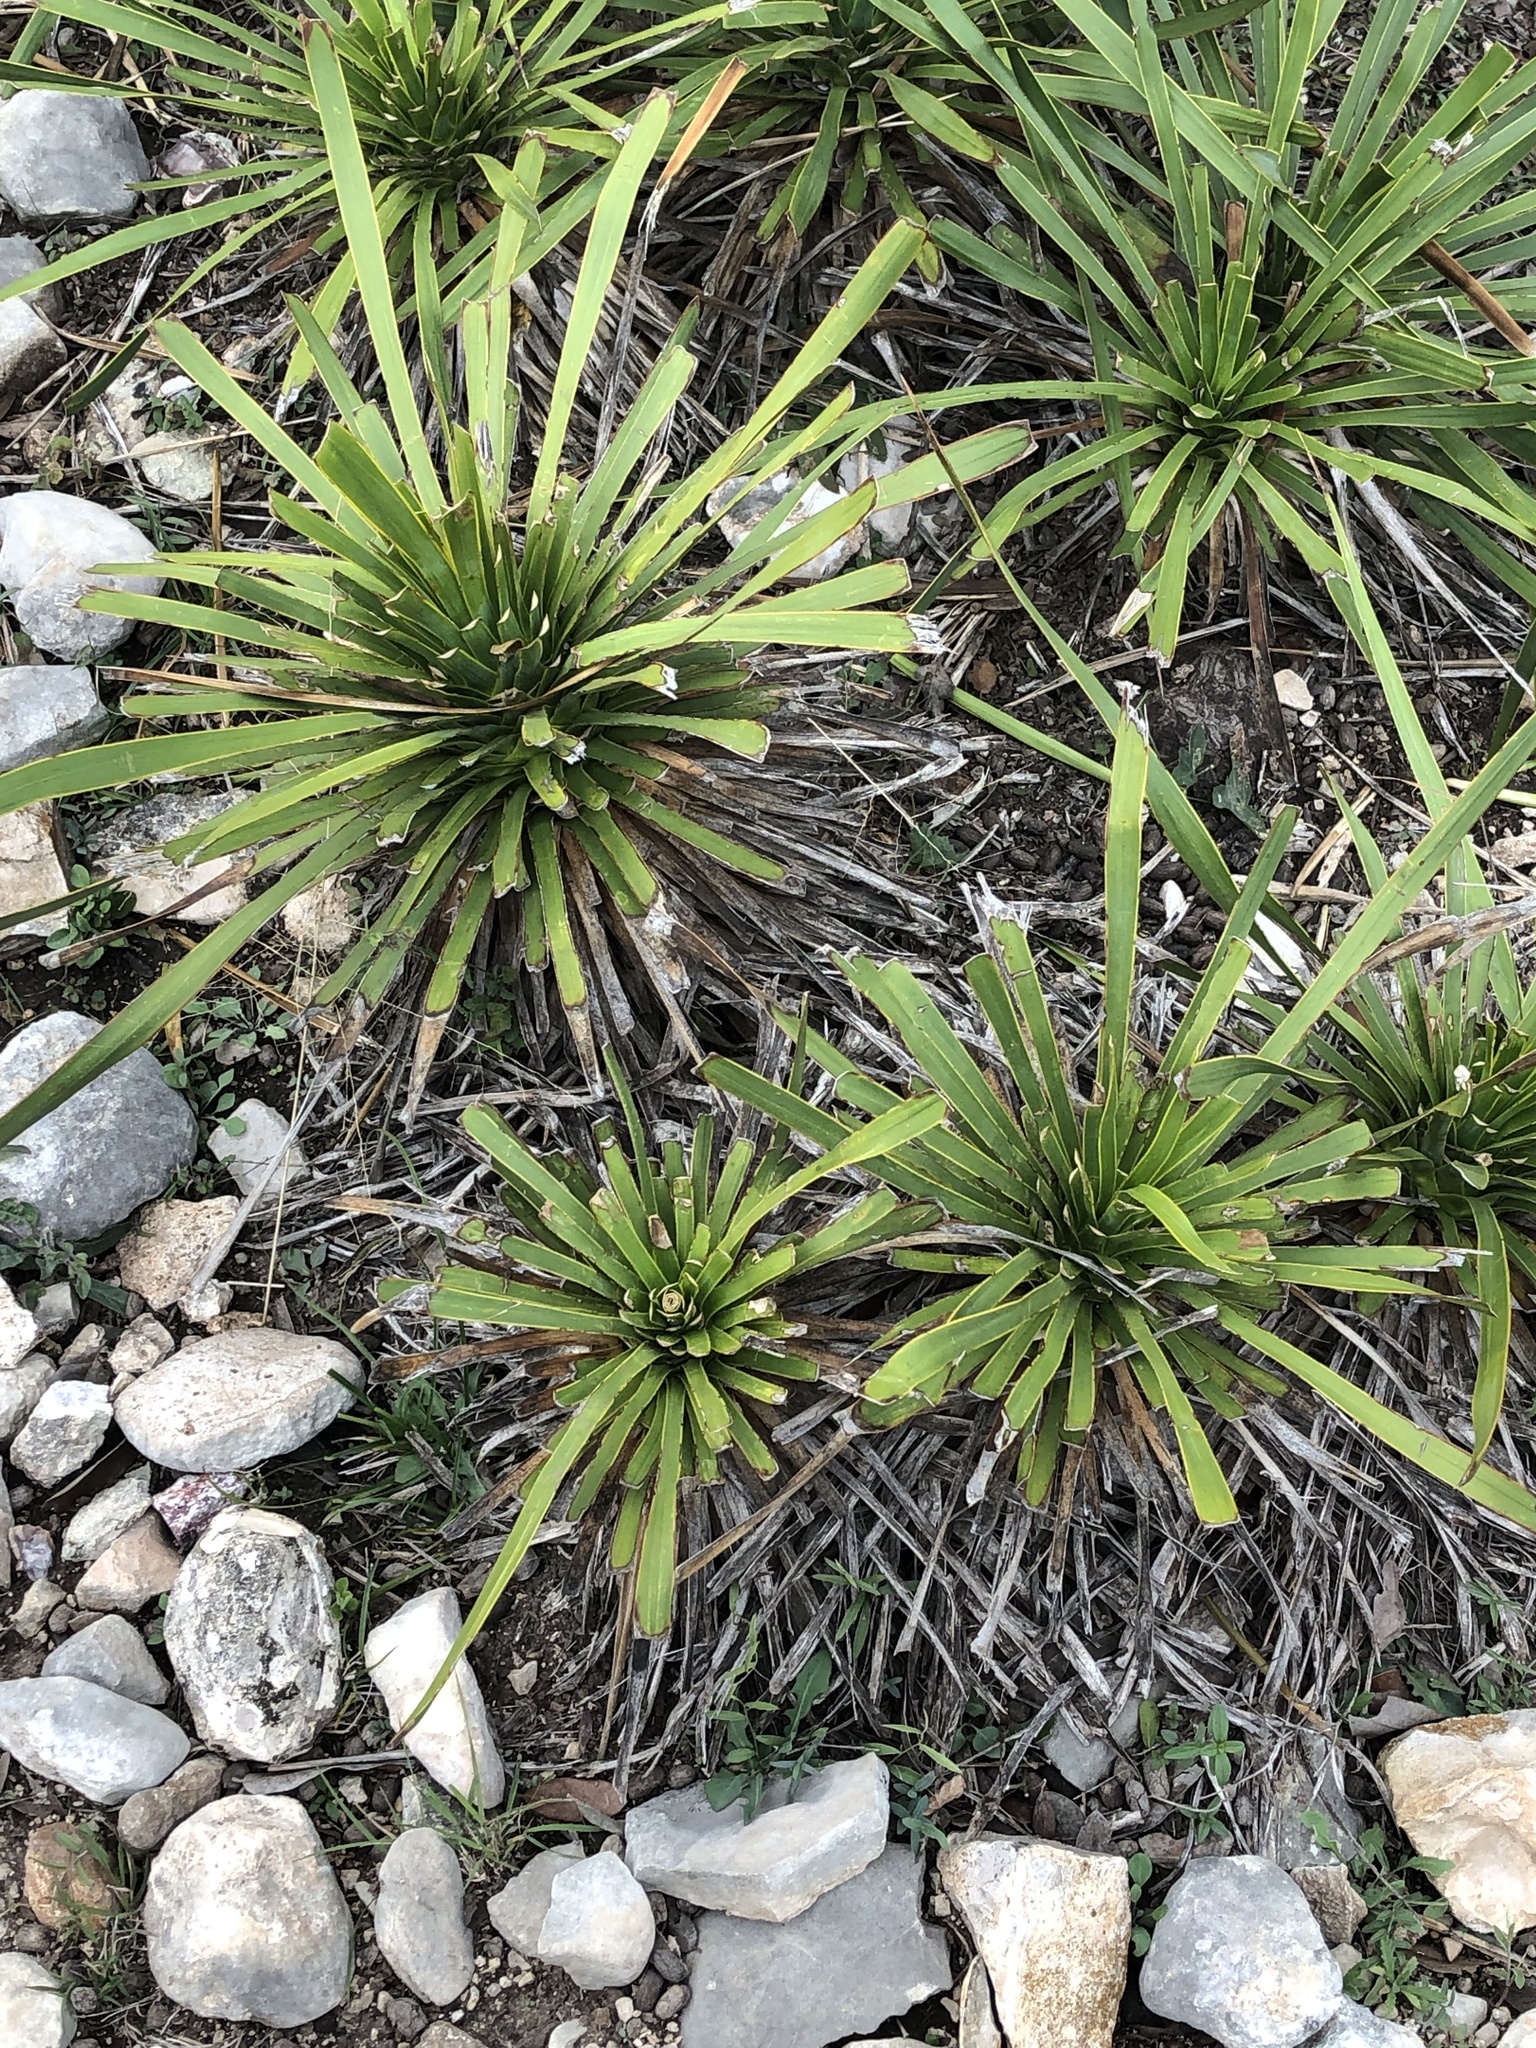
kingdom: Plantae
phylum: Tracheophyta
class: Liliopsida
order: Asparagales
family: Asparagaceae
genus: Yucca
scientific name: Yucca reverchonii
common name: San angelo yucca
